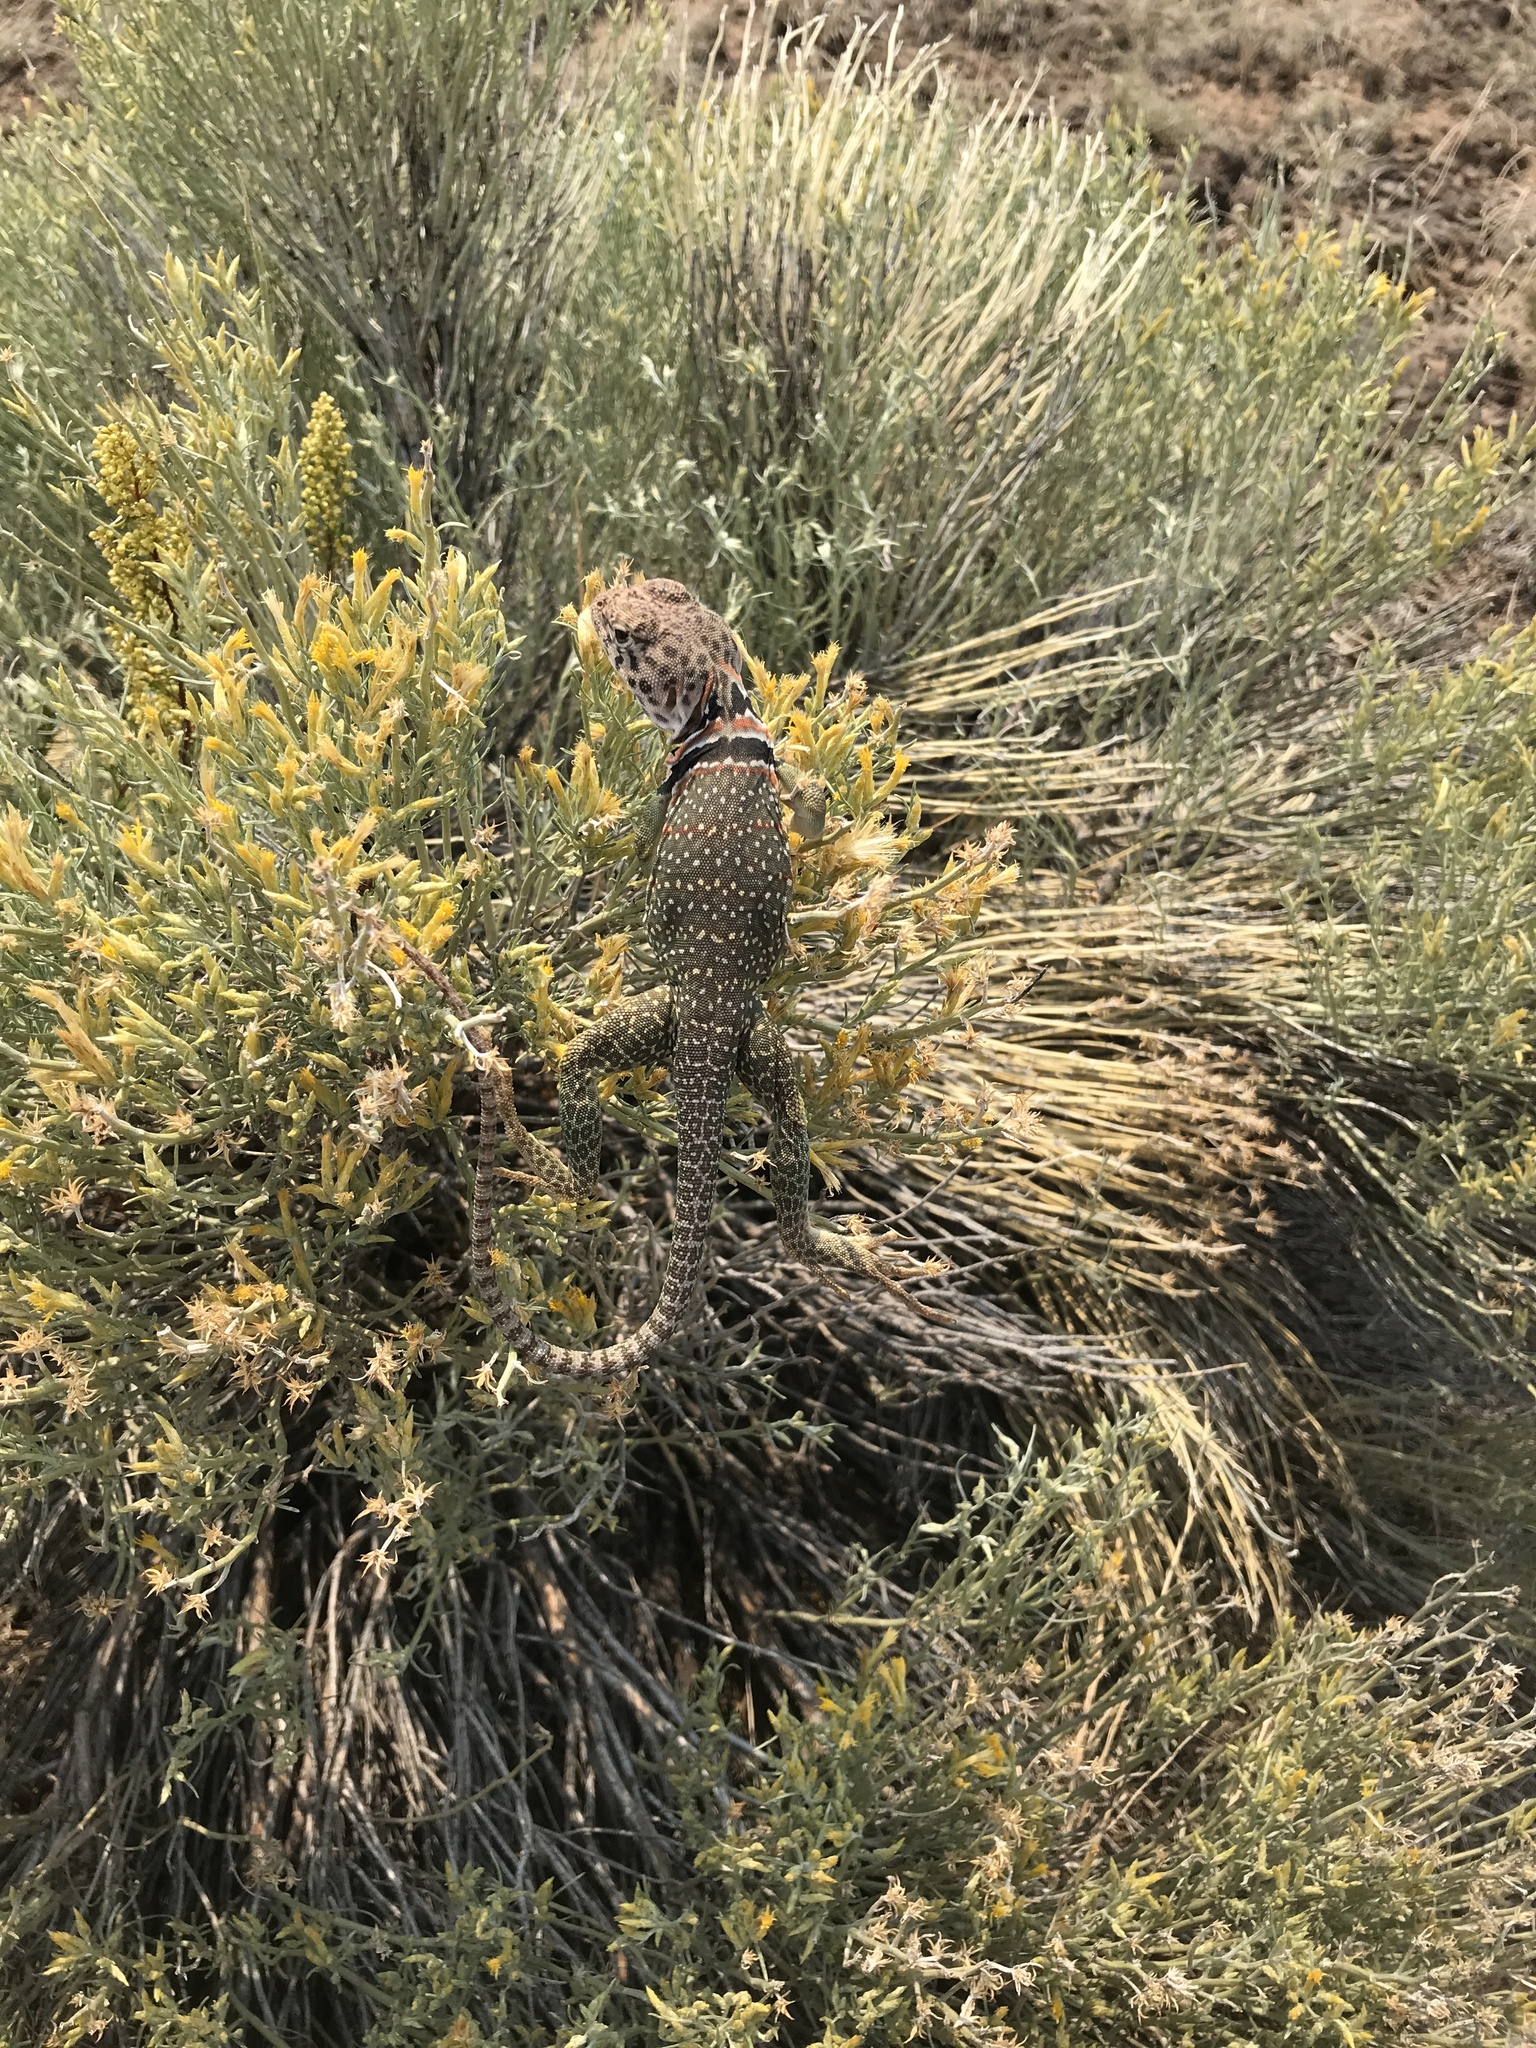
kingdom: Animalia
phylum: Chordata
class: Squamata
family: Crotaphytidae
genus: Crotaphytus
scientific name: Crotaphytus collaris
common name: Collared lizard
